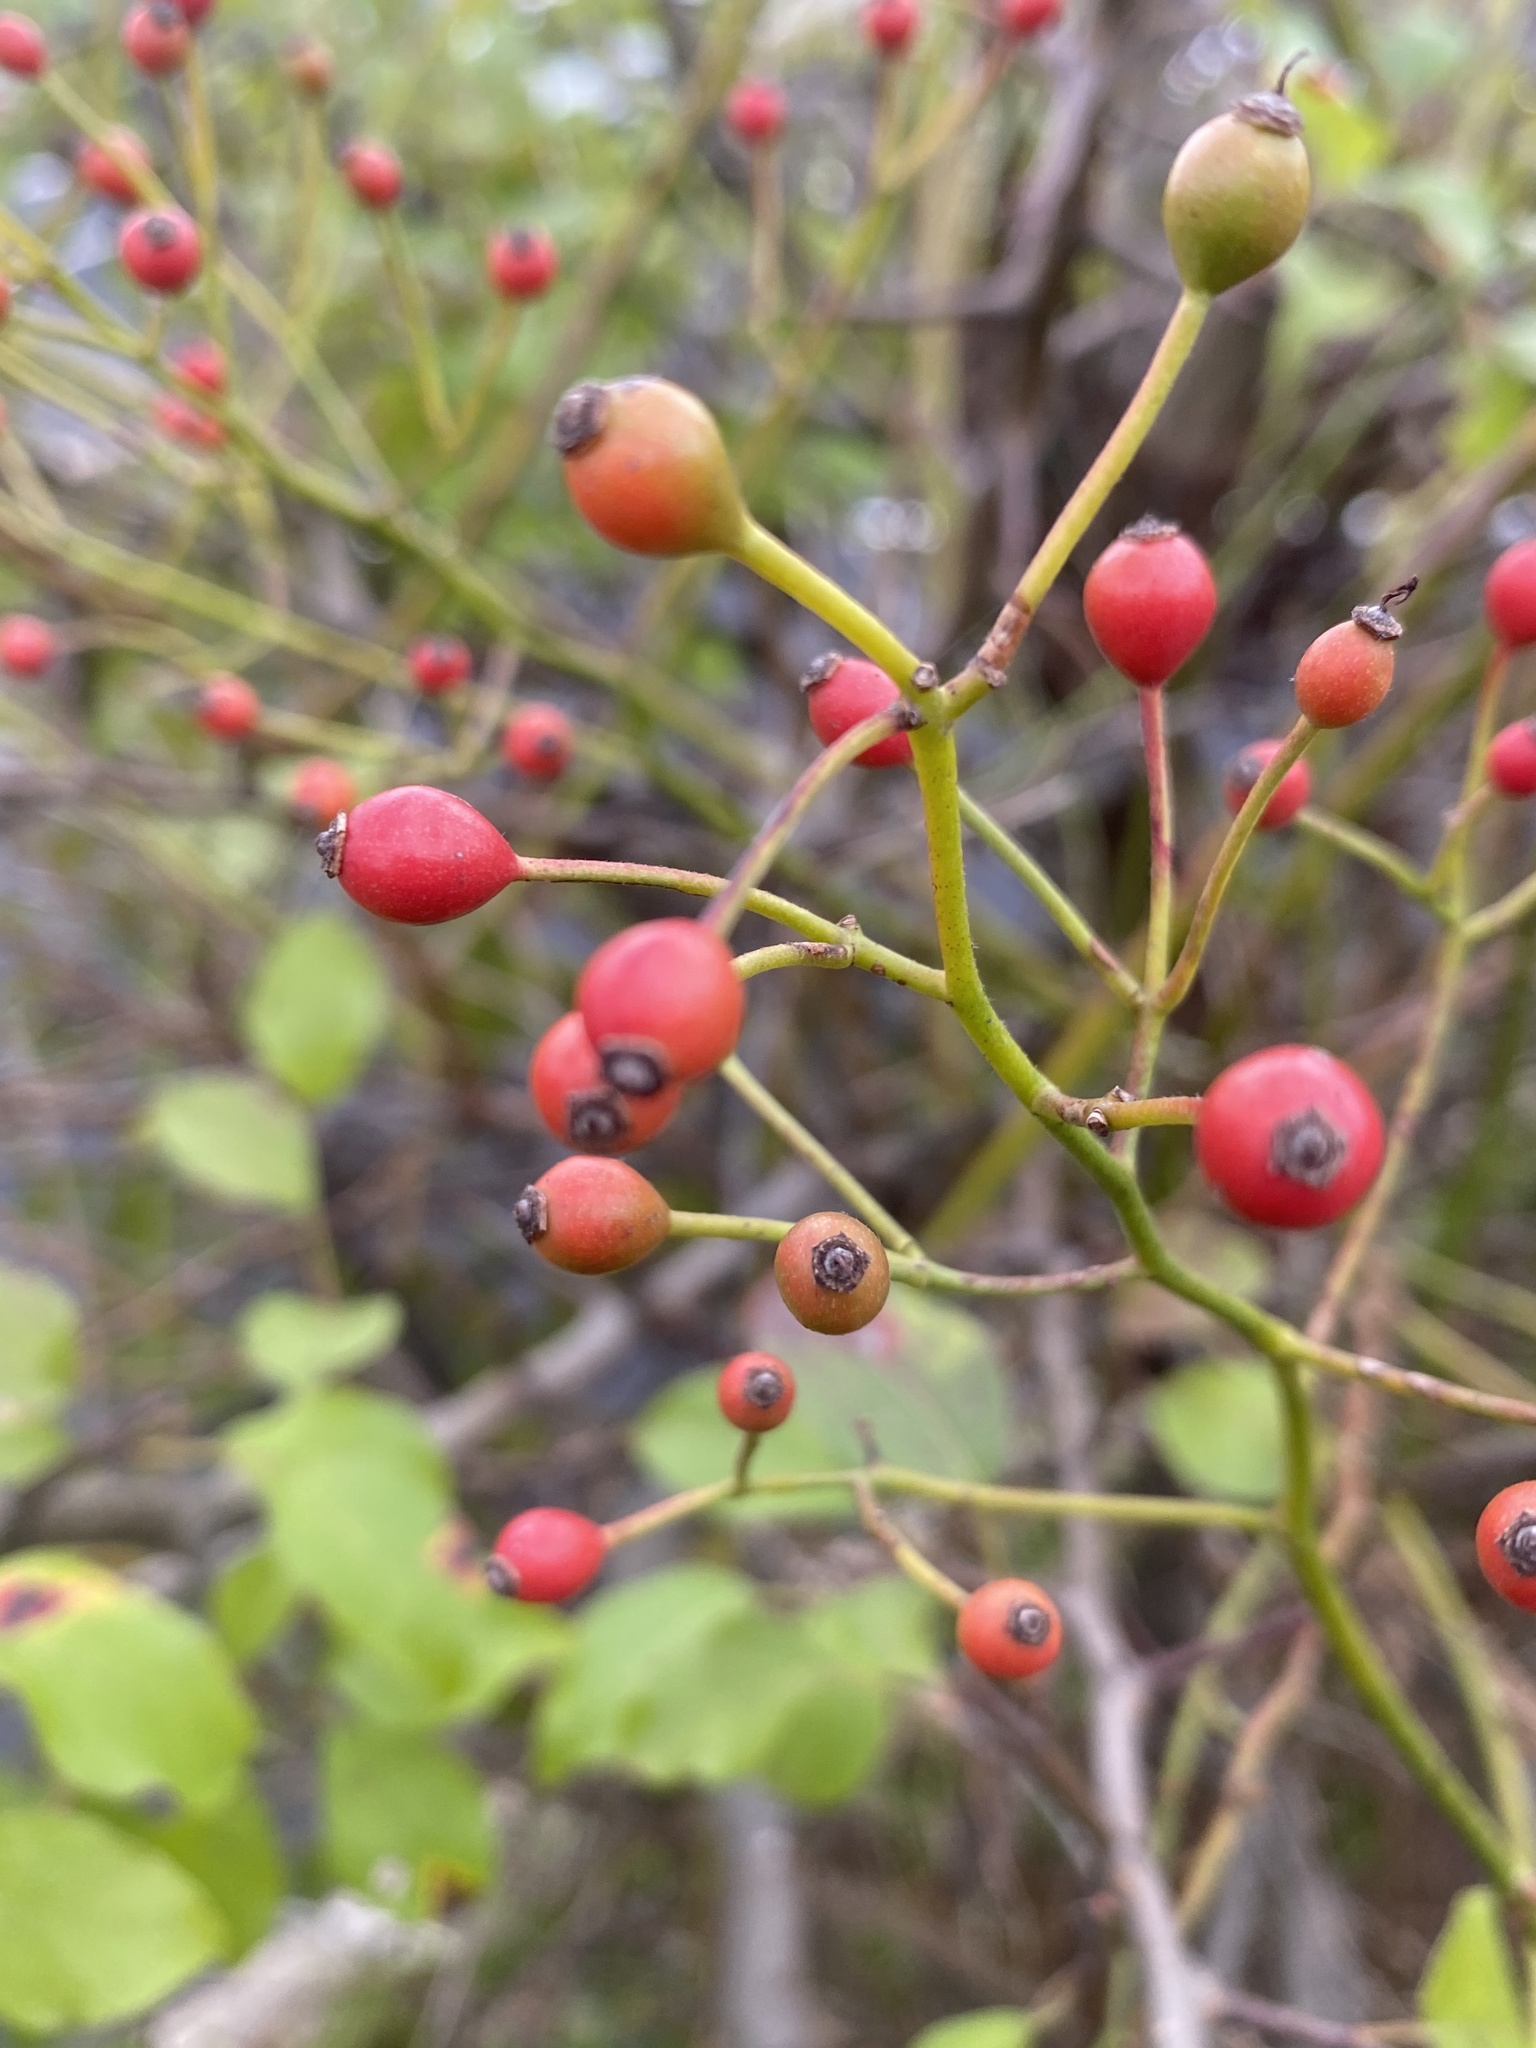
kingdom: Plantae
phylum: Tracheophyta
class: Magnoliopsida
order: Rosales
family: Rosaceae
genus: Rosa
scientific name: Rosa multiflora
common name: Multiflora rose
